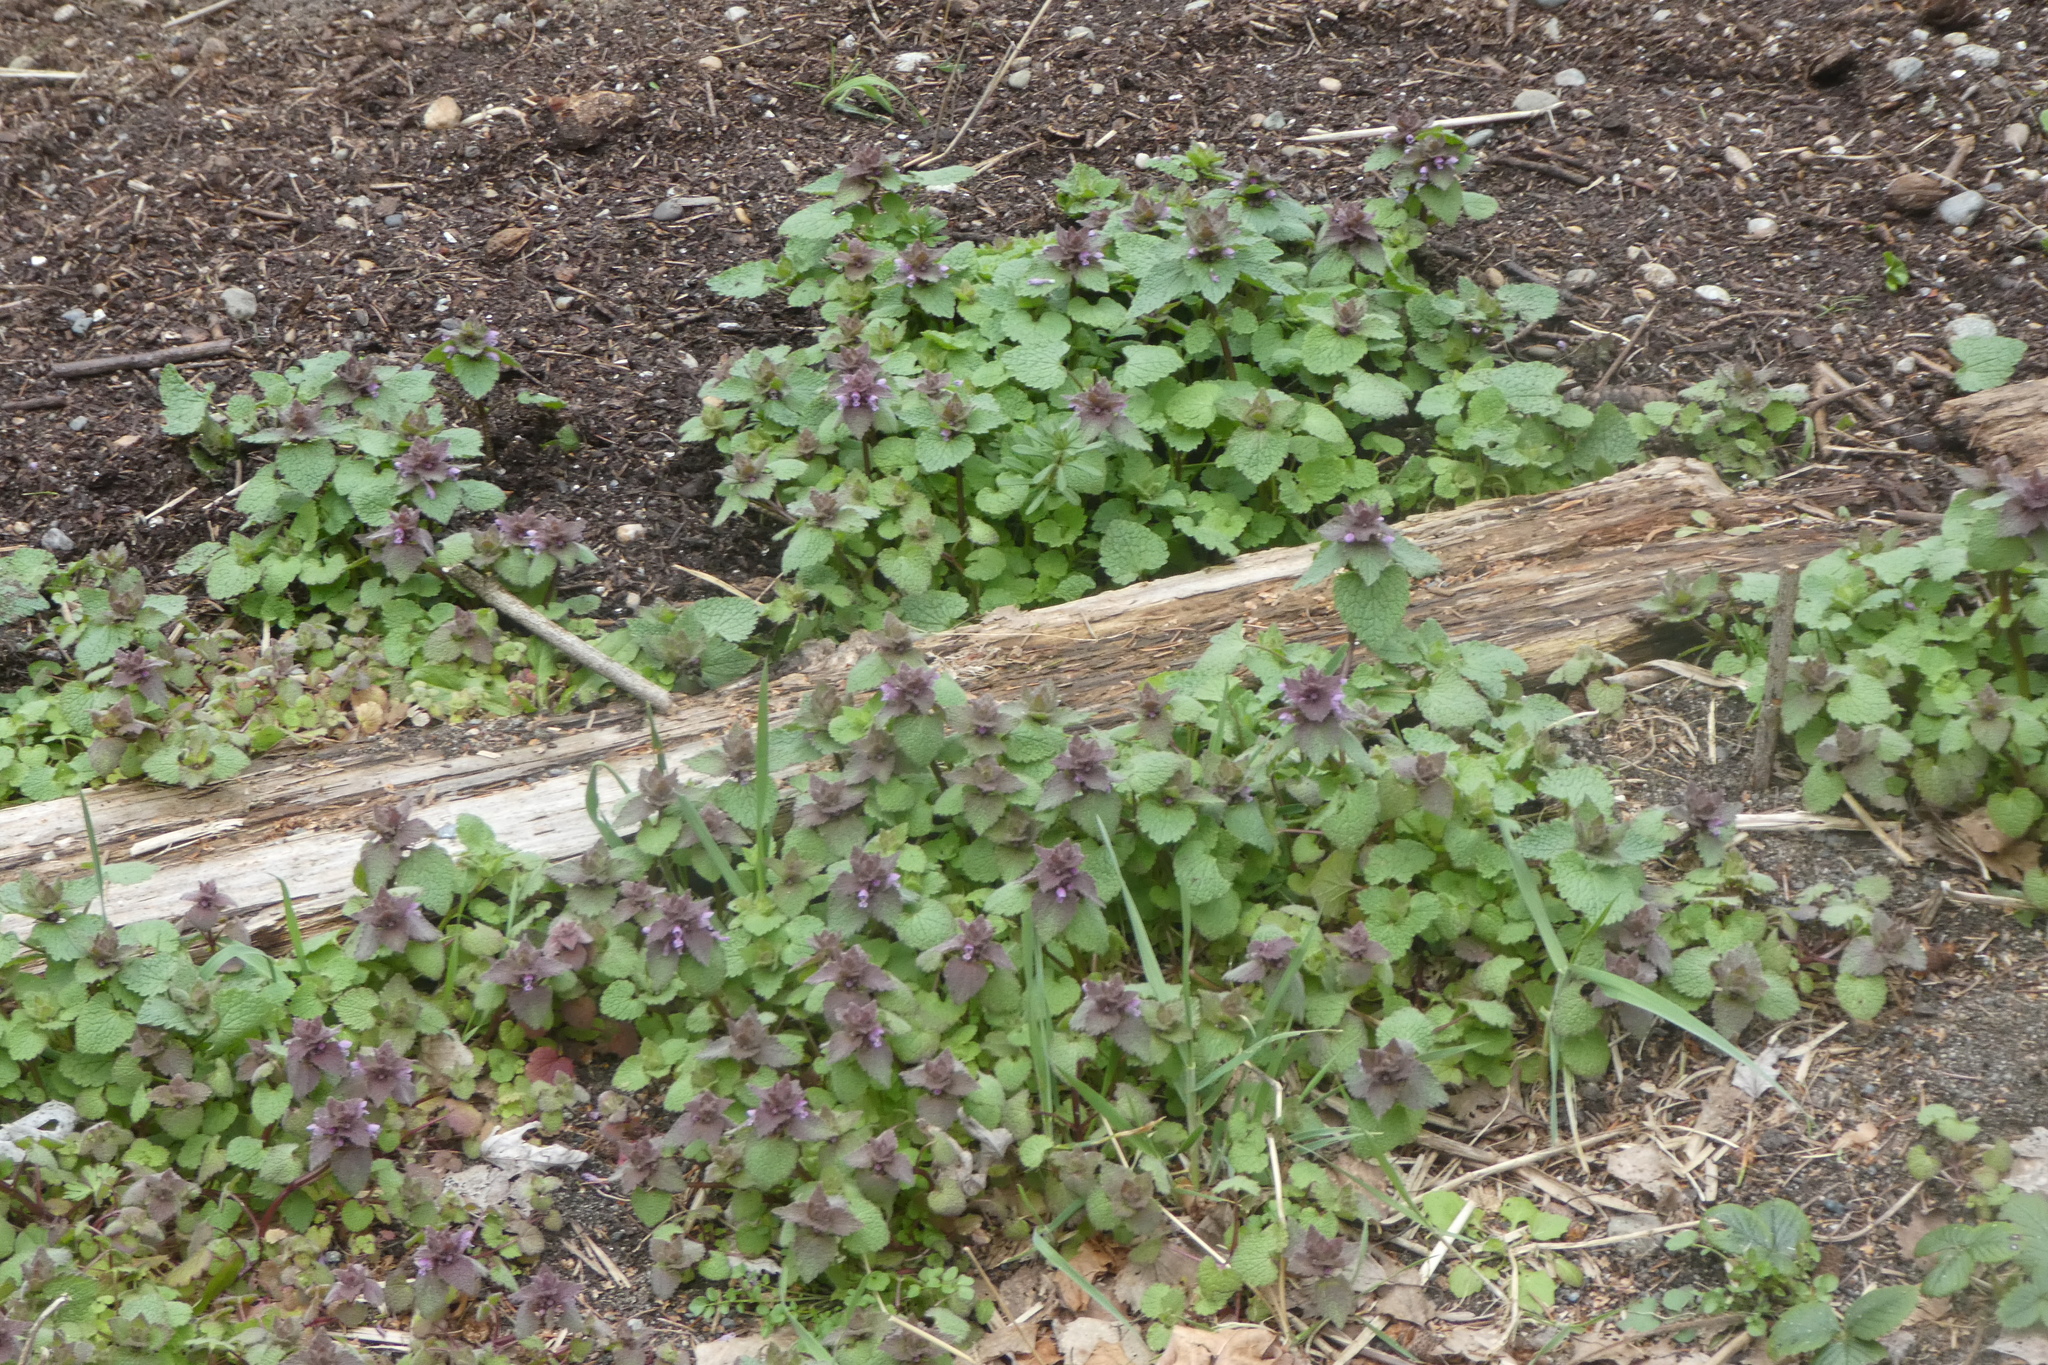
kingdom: Plantae
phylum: Tracheophyta
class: Magnoliopsida
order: Lamiales
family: Lamiaceae
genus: Lamium
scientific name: Lamium purpureum
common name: Red dead-nettle
